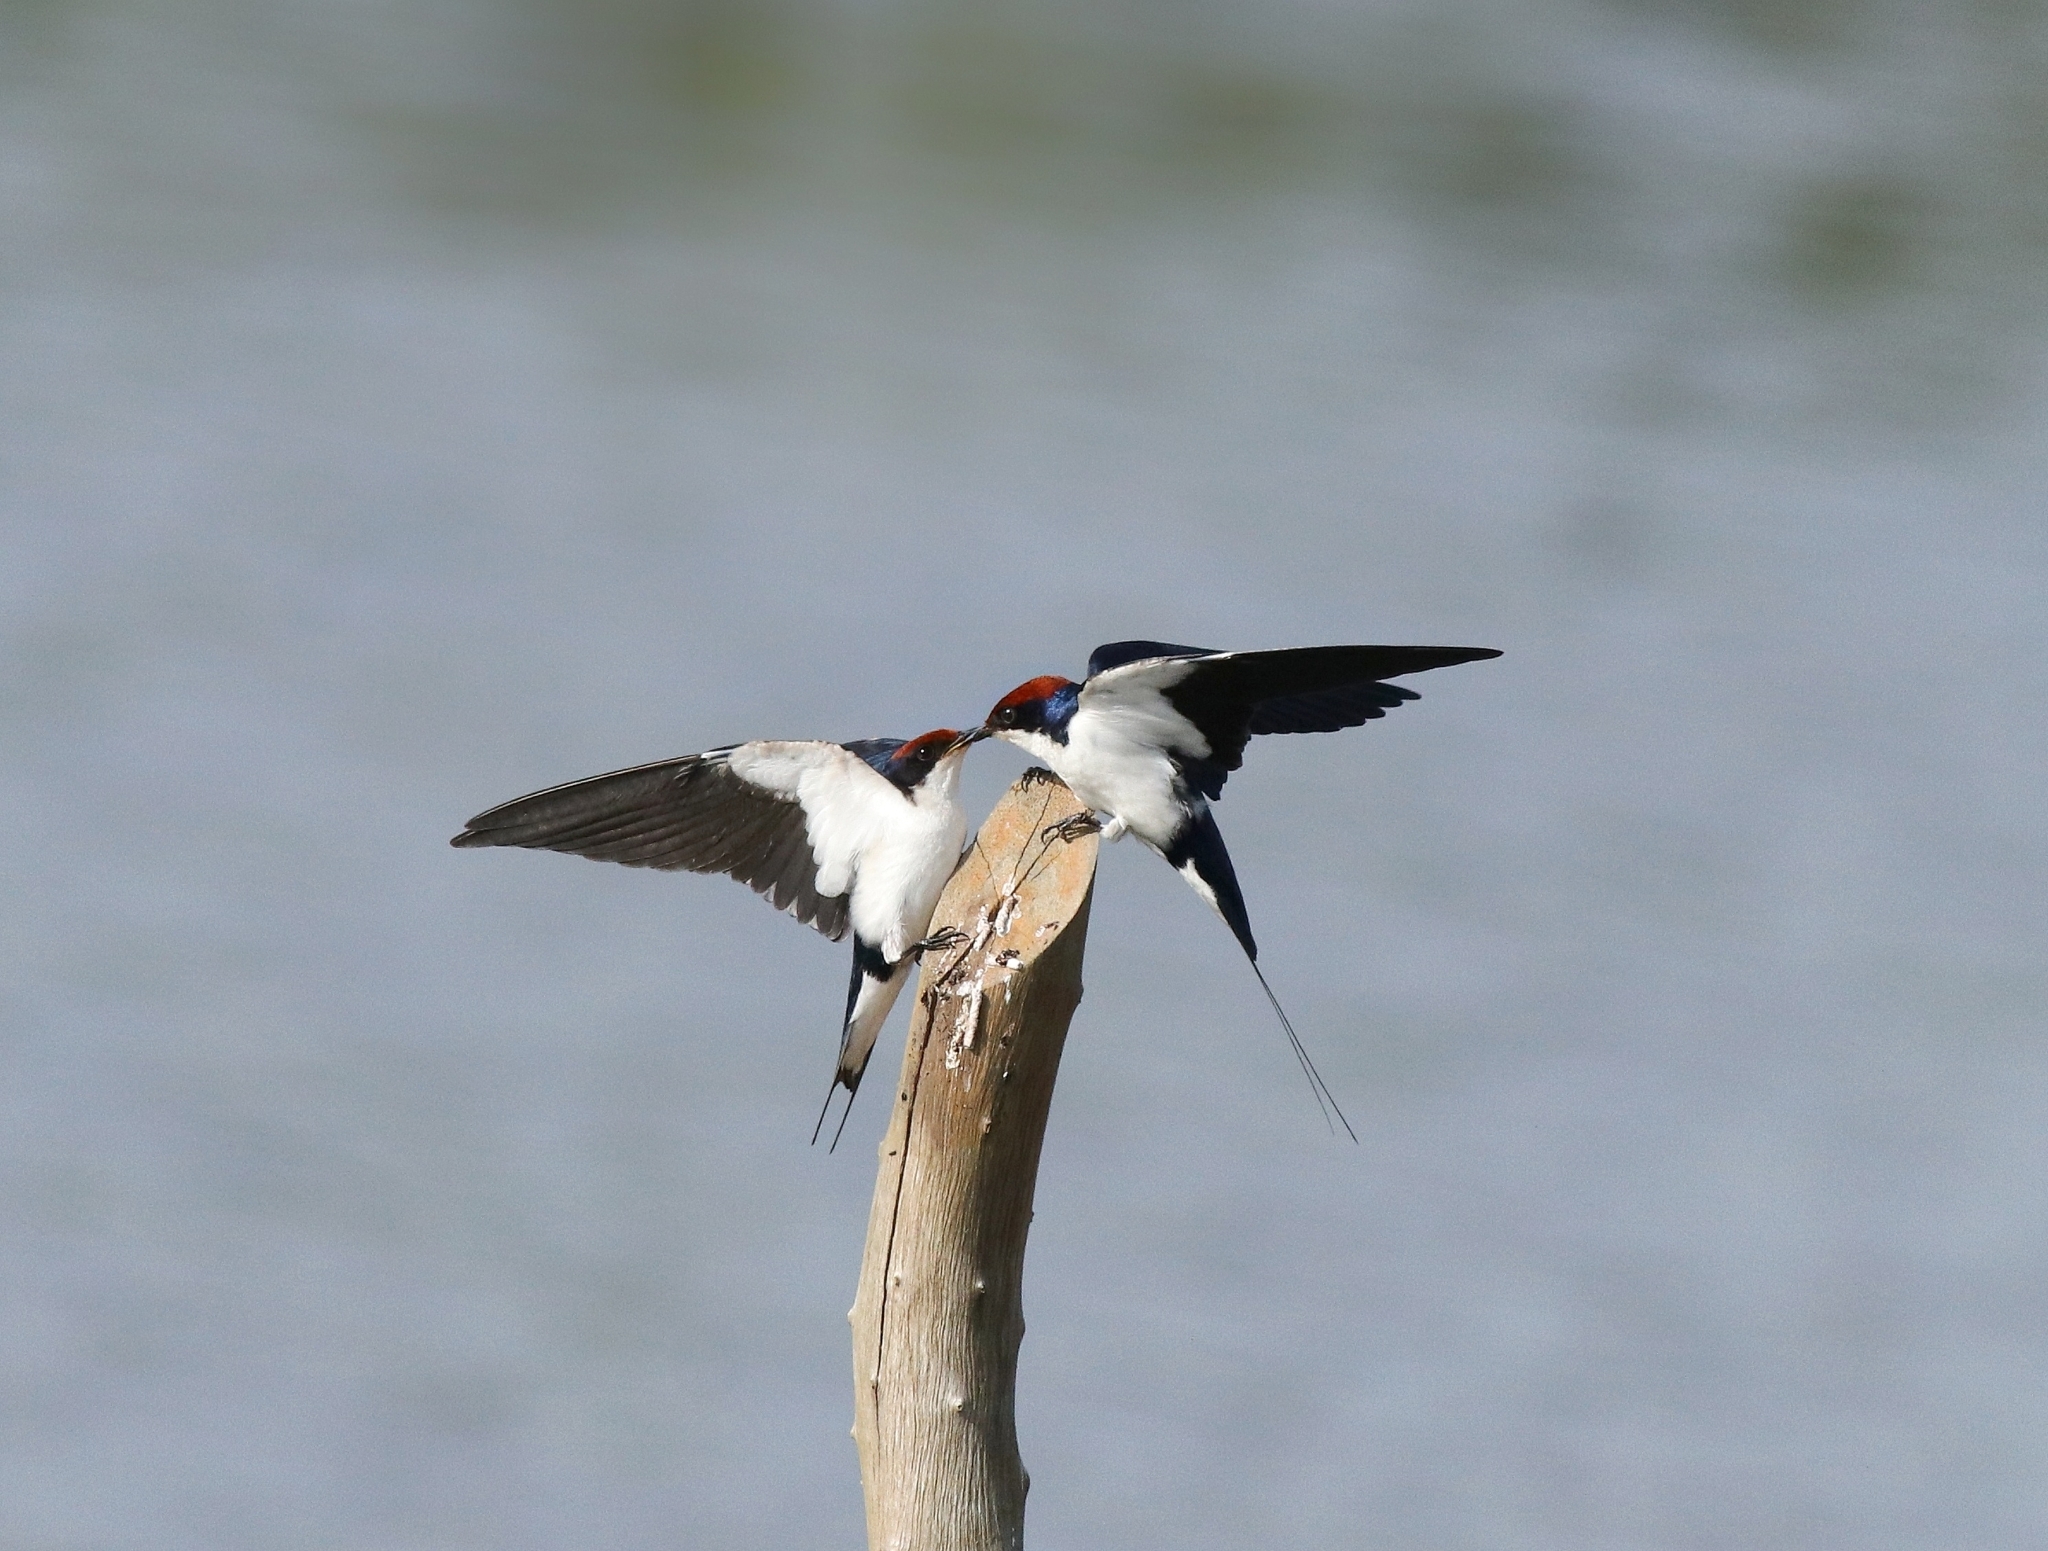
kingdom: Animalia
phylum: Chordata
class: Aves
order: Passeriformes
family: Hirundinidae
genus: Hirundo
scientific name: Hirundo smithii
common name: Wire-tailed swallow
